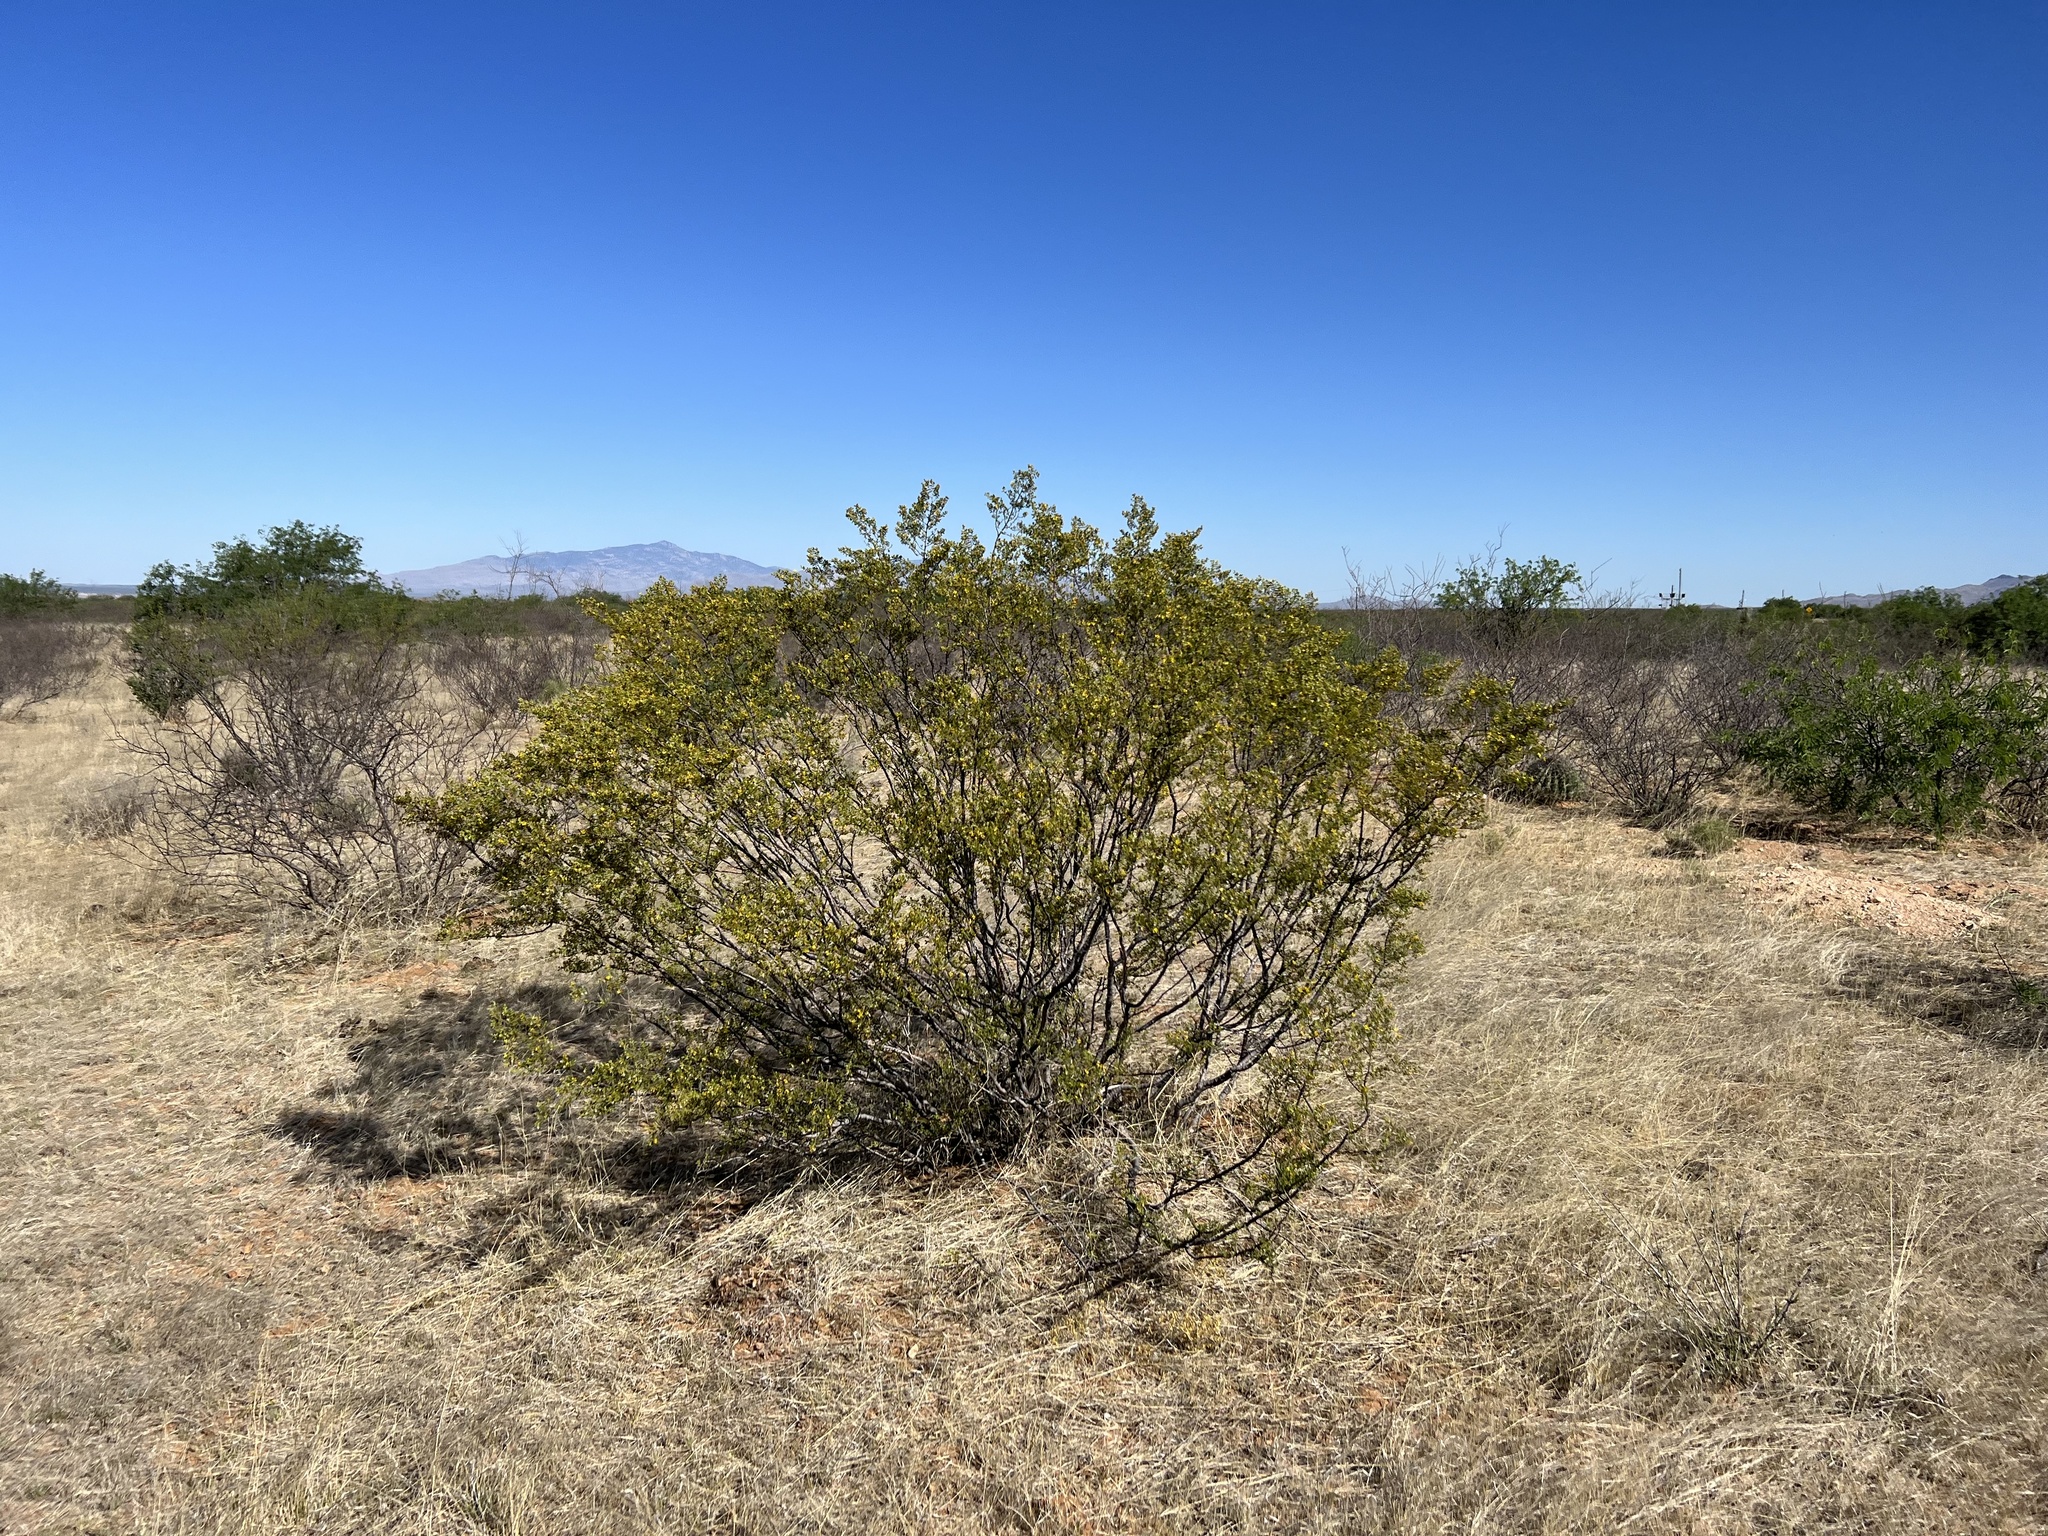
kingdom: Plantae
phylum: Tracheophyta
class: Magnoliopsida
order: Zygophyllales
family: Zygophyllaceae
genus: Larrea
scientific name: Larrea tridentata
